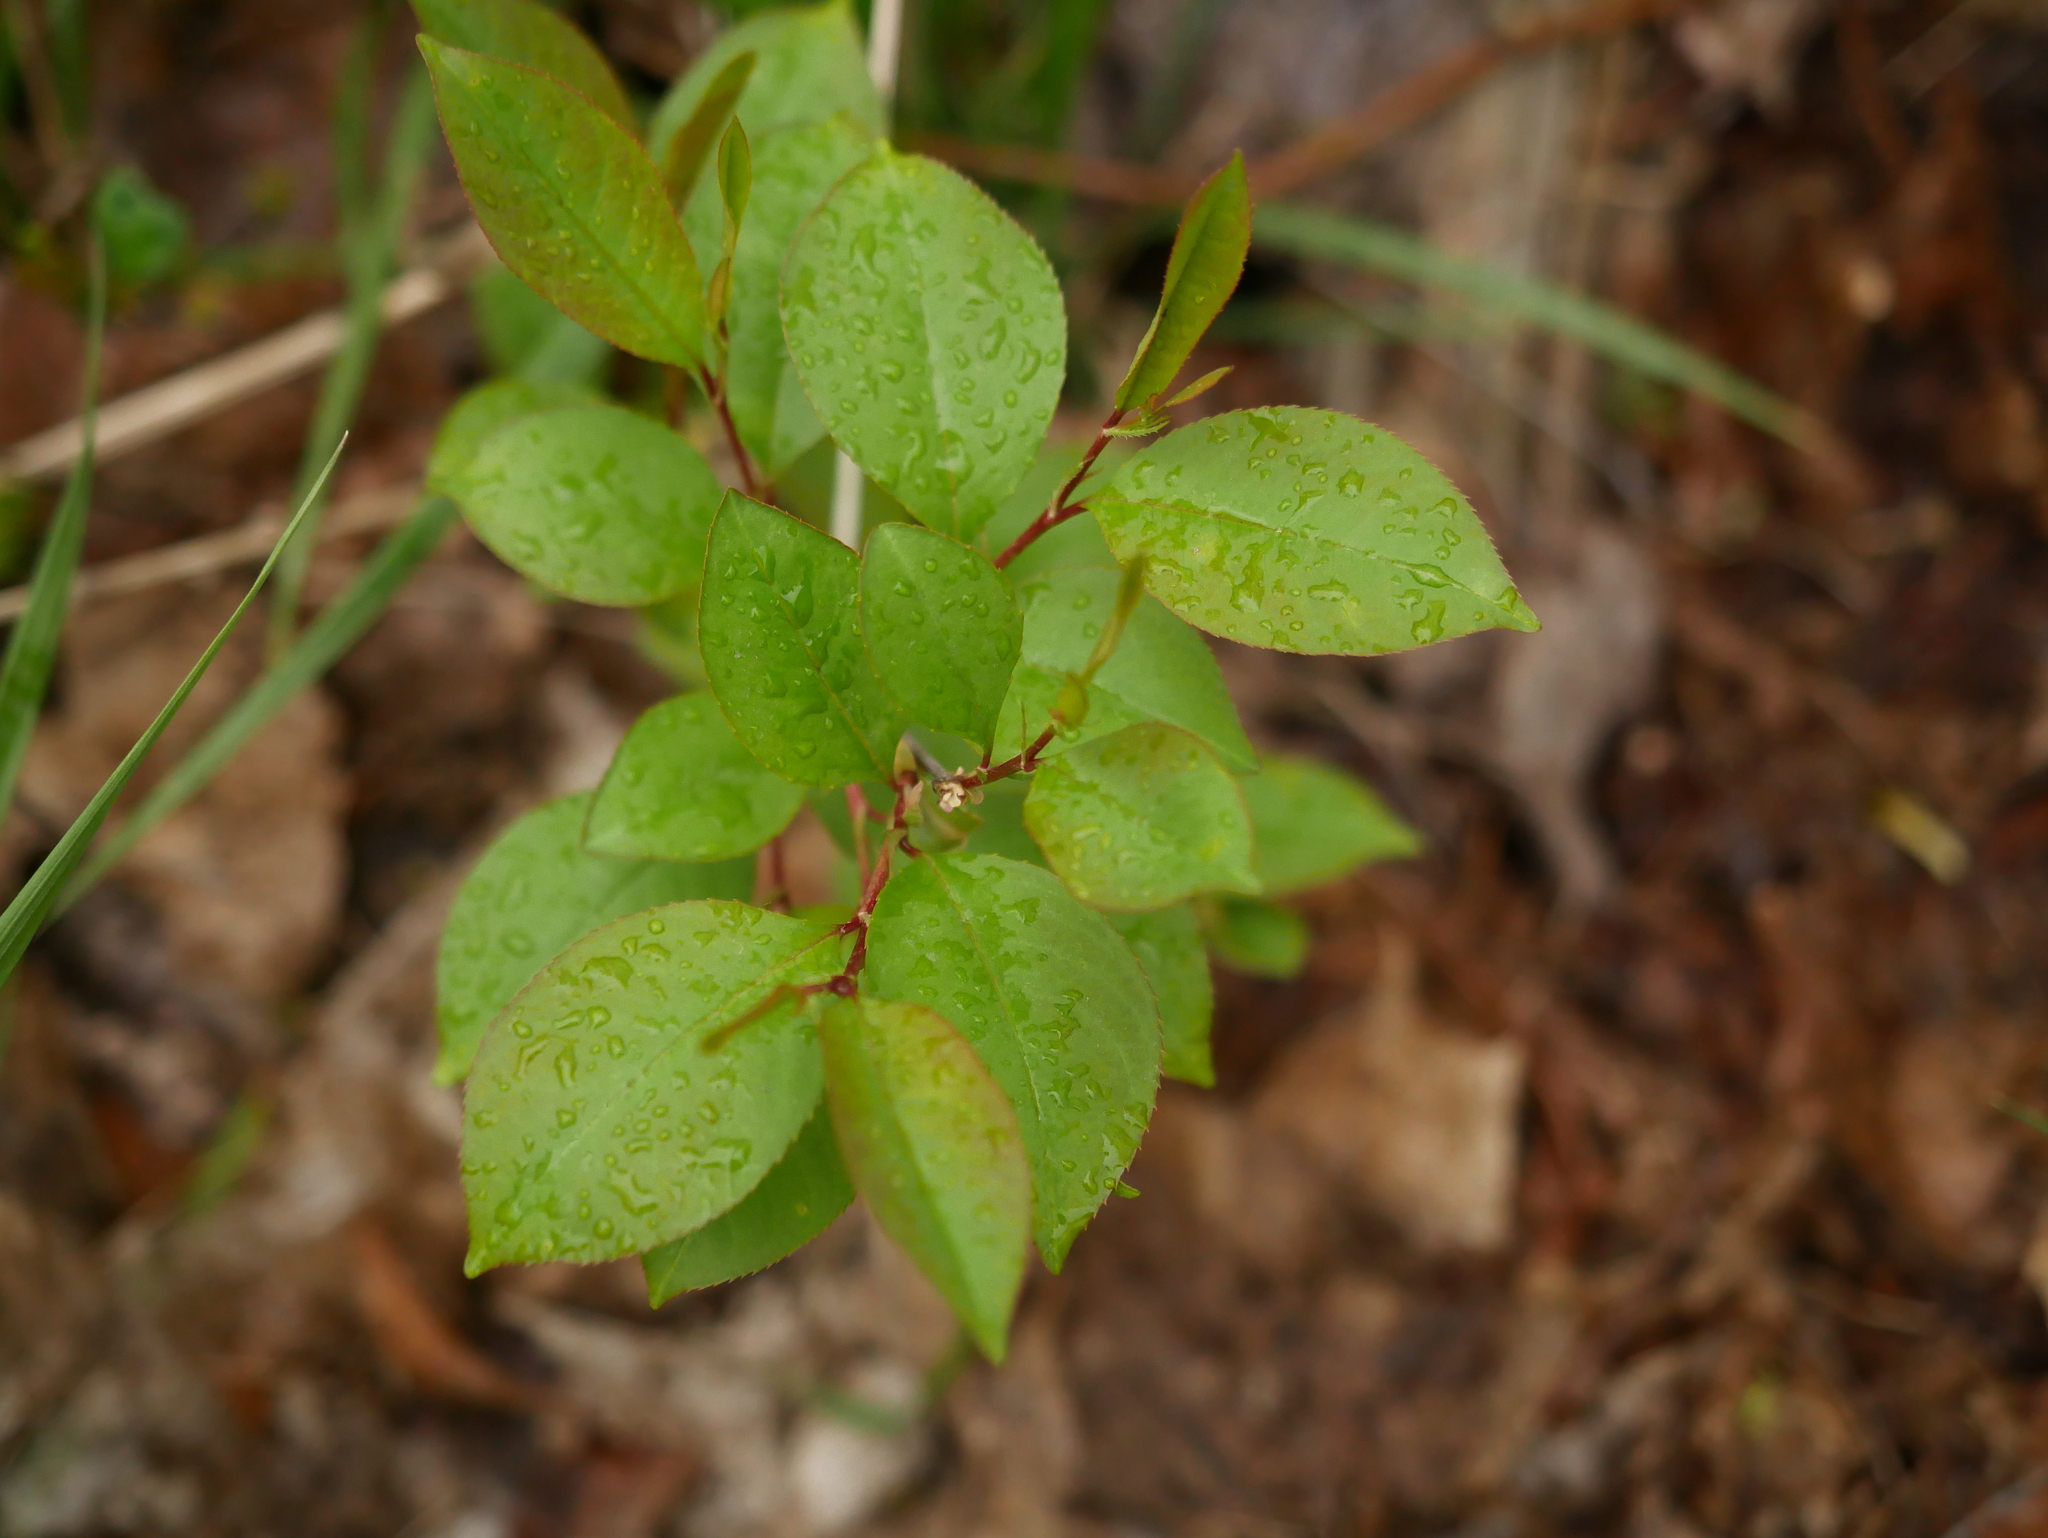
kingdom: Plantae
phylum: Tracheophyta
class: Magnoliopsida
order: Rosales
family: Rosaceae
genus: Prunus
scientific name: Prunus serotina
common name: Black cherry
